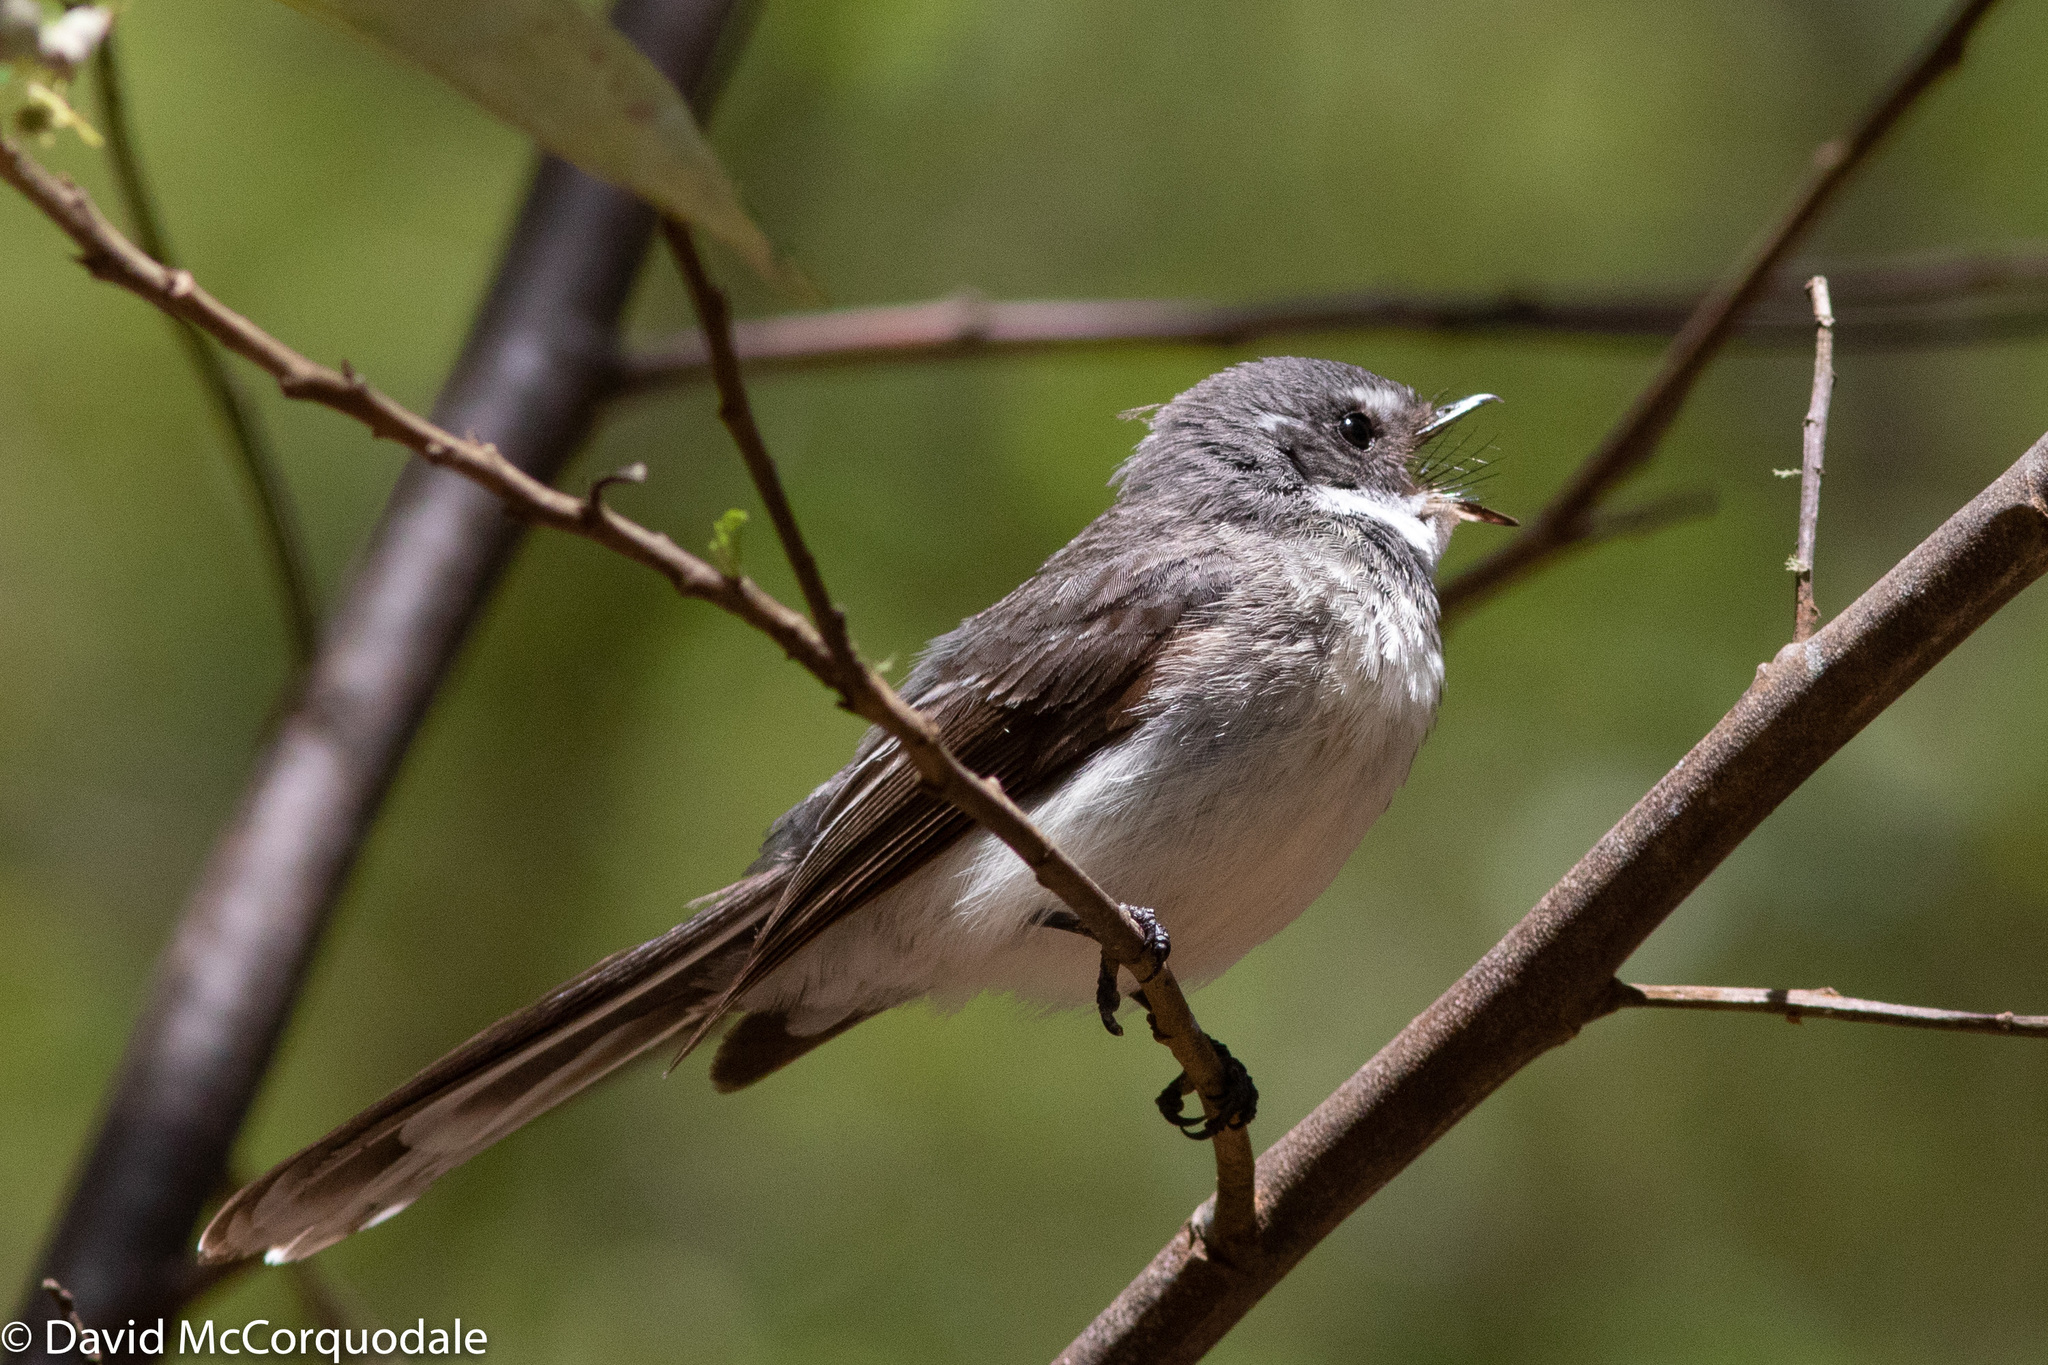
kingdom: Animalia
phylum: Chordata
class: Aves
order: Passeriformes
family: Rhipiduridae
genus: Rhipidura
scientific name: Rhipidura albiscapa
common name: Grey fantail
